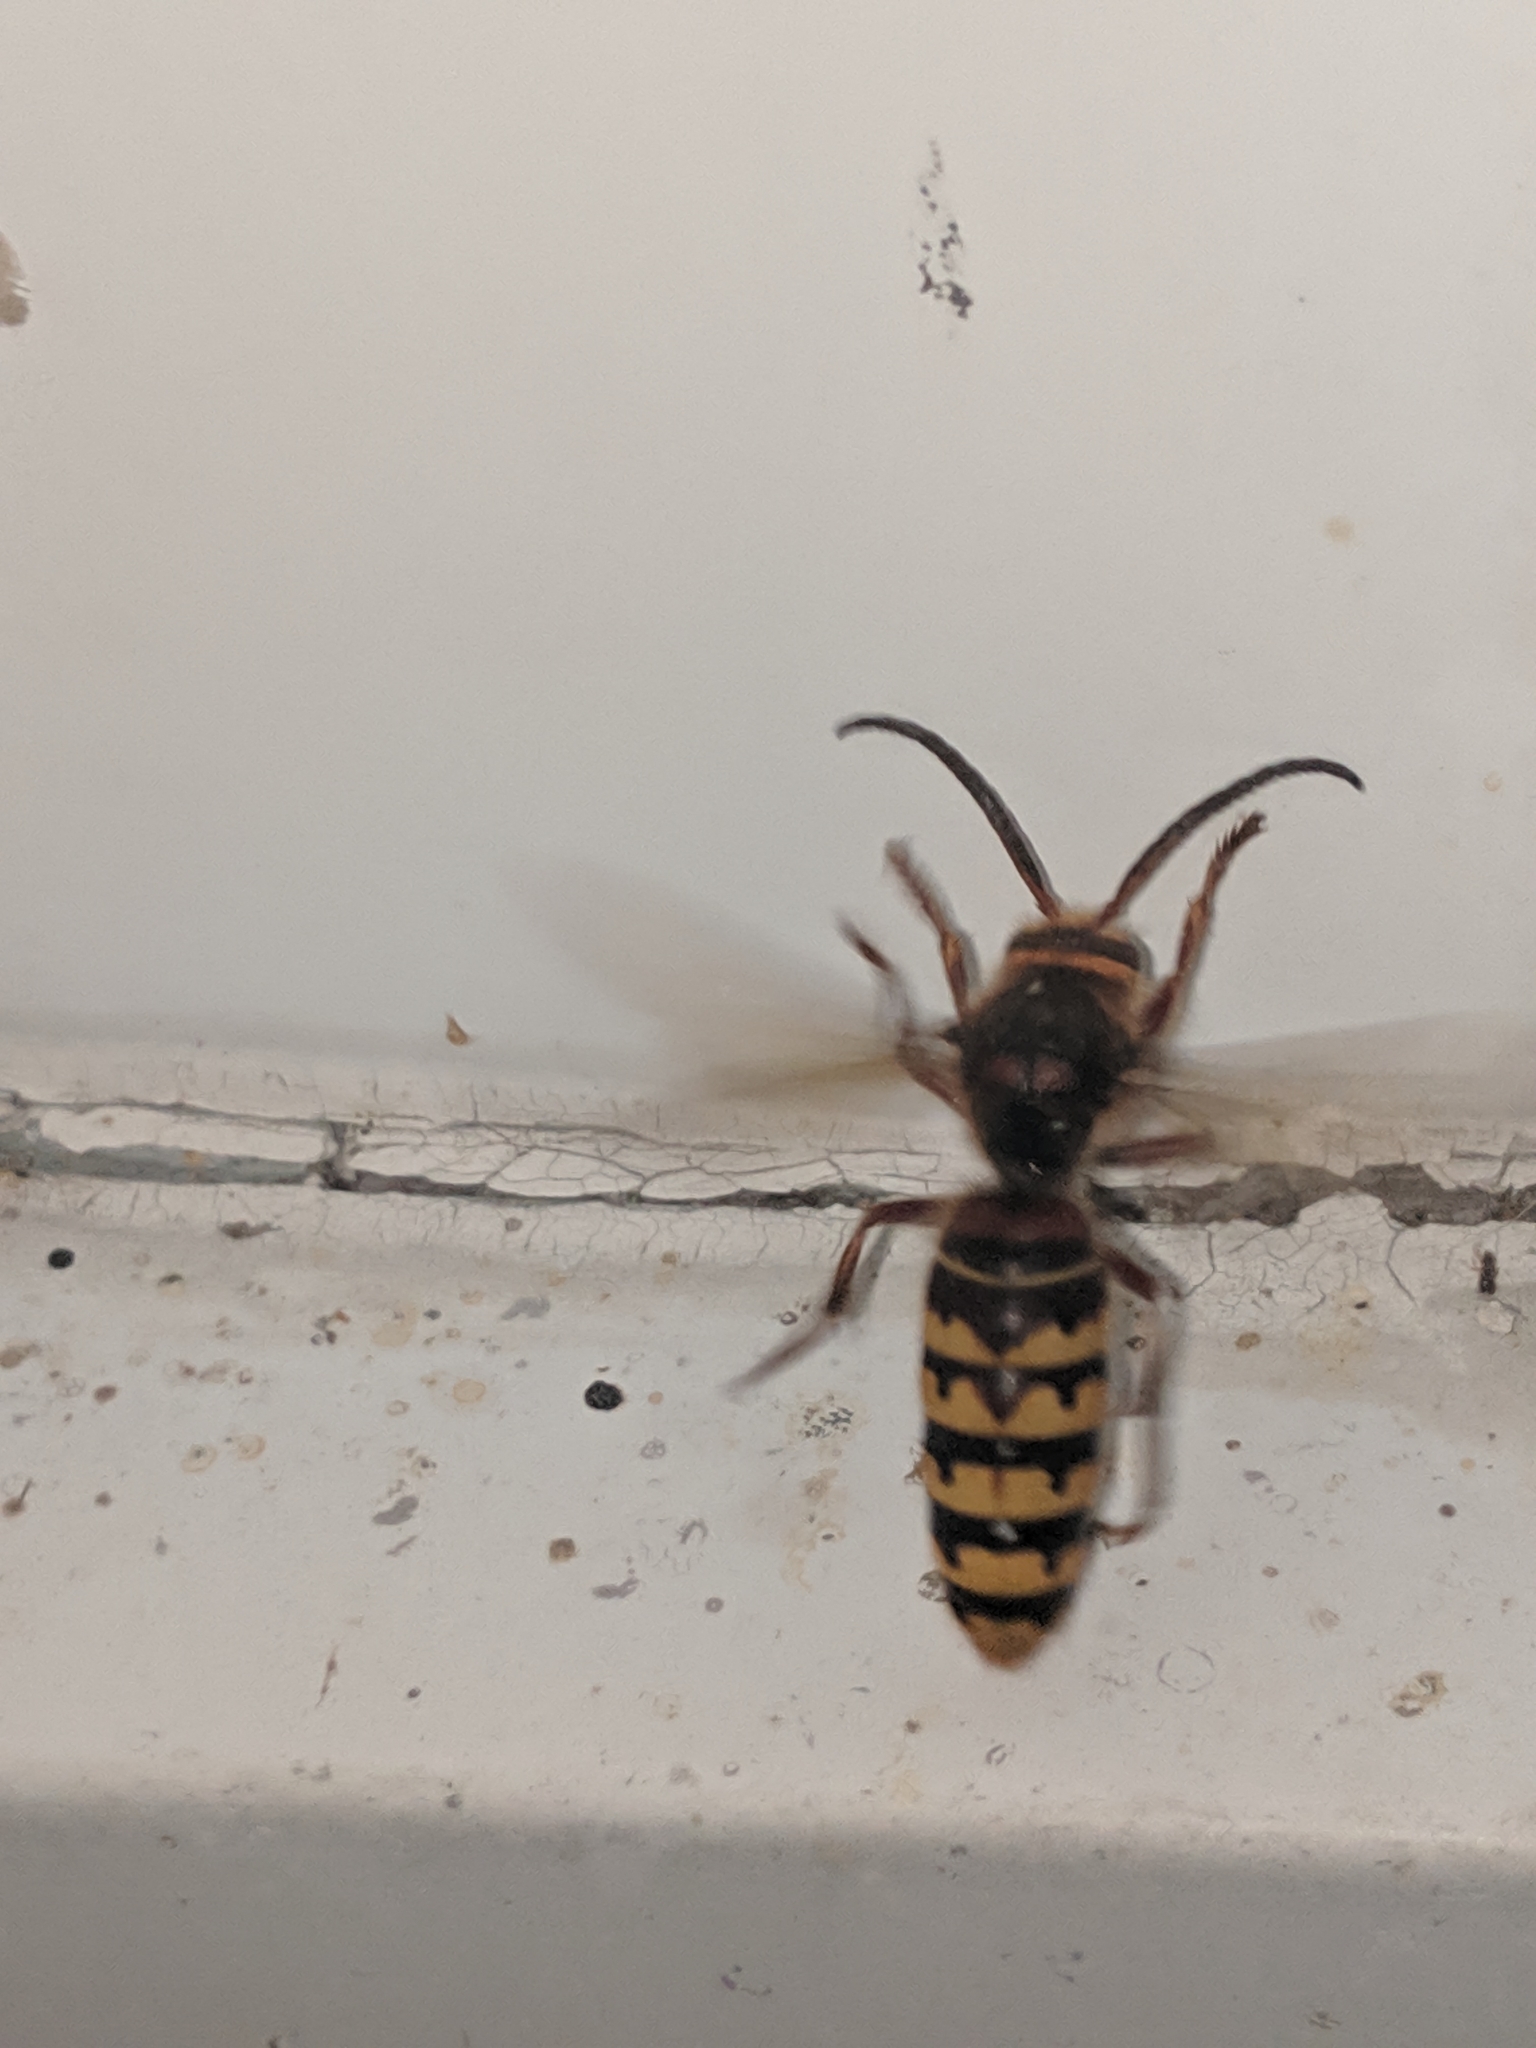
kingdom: Animalia
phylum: Arthropoda
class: Insecta
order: Hymenoptera
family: Vespidae
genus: Vespa
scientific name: Vespa crabro
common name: Hornet
